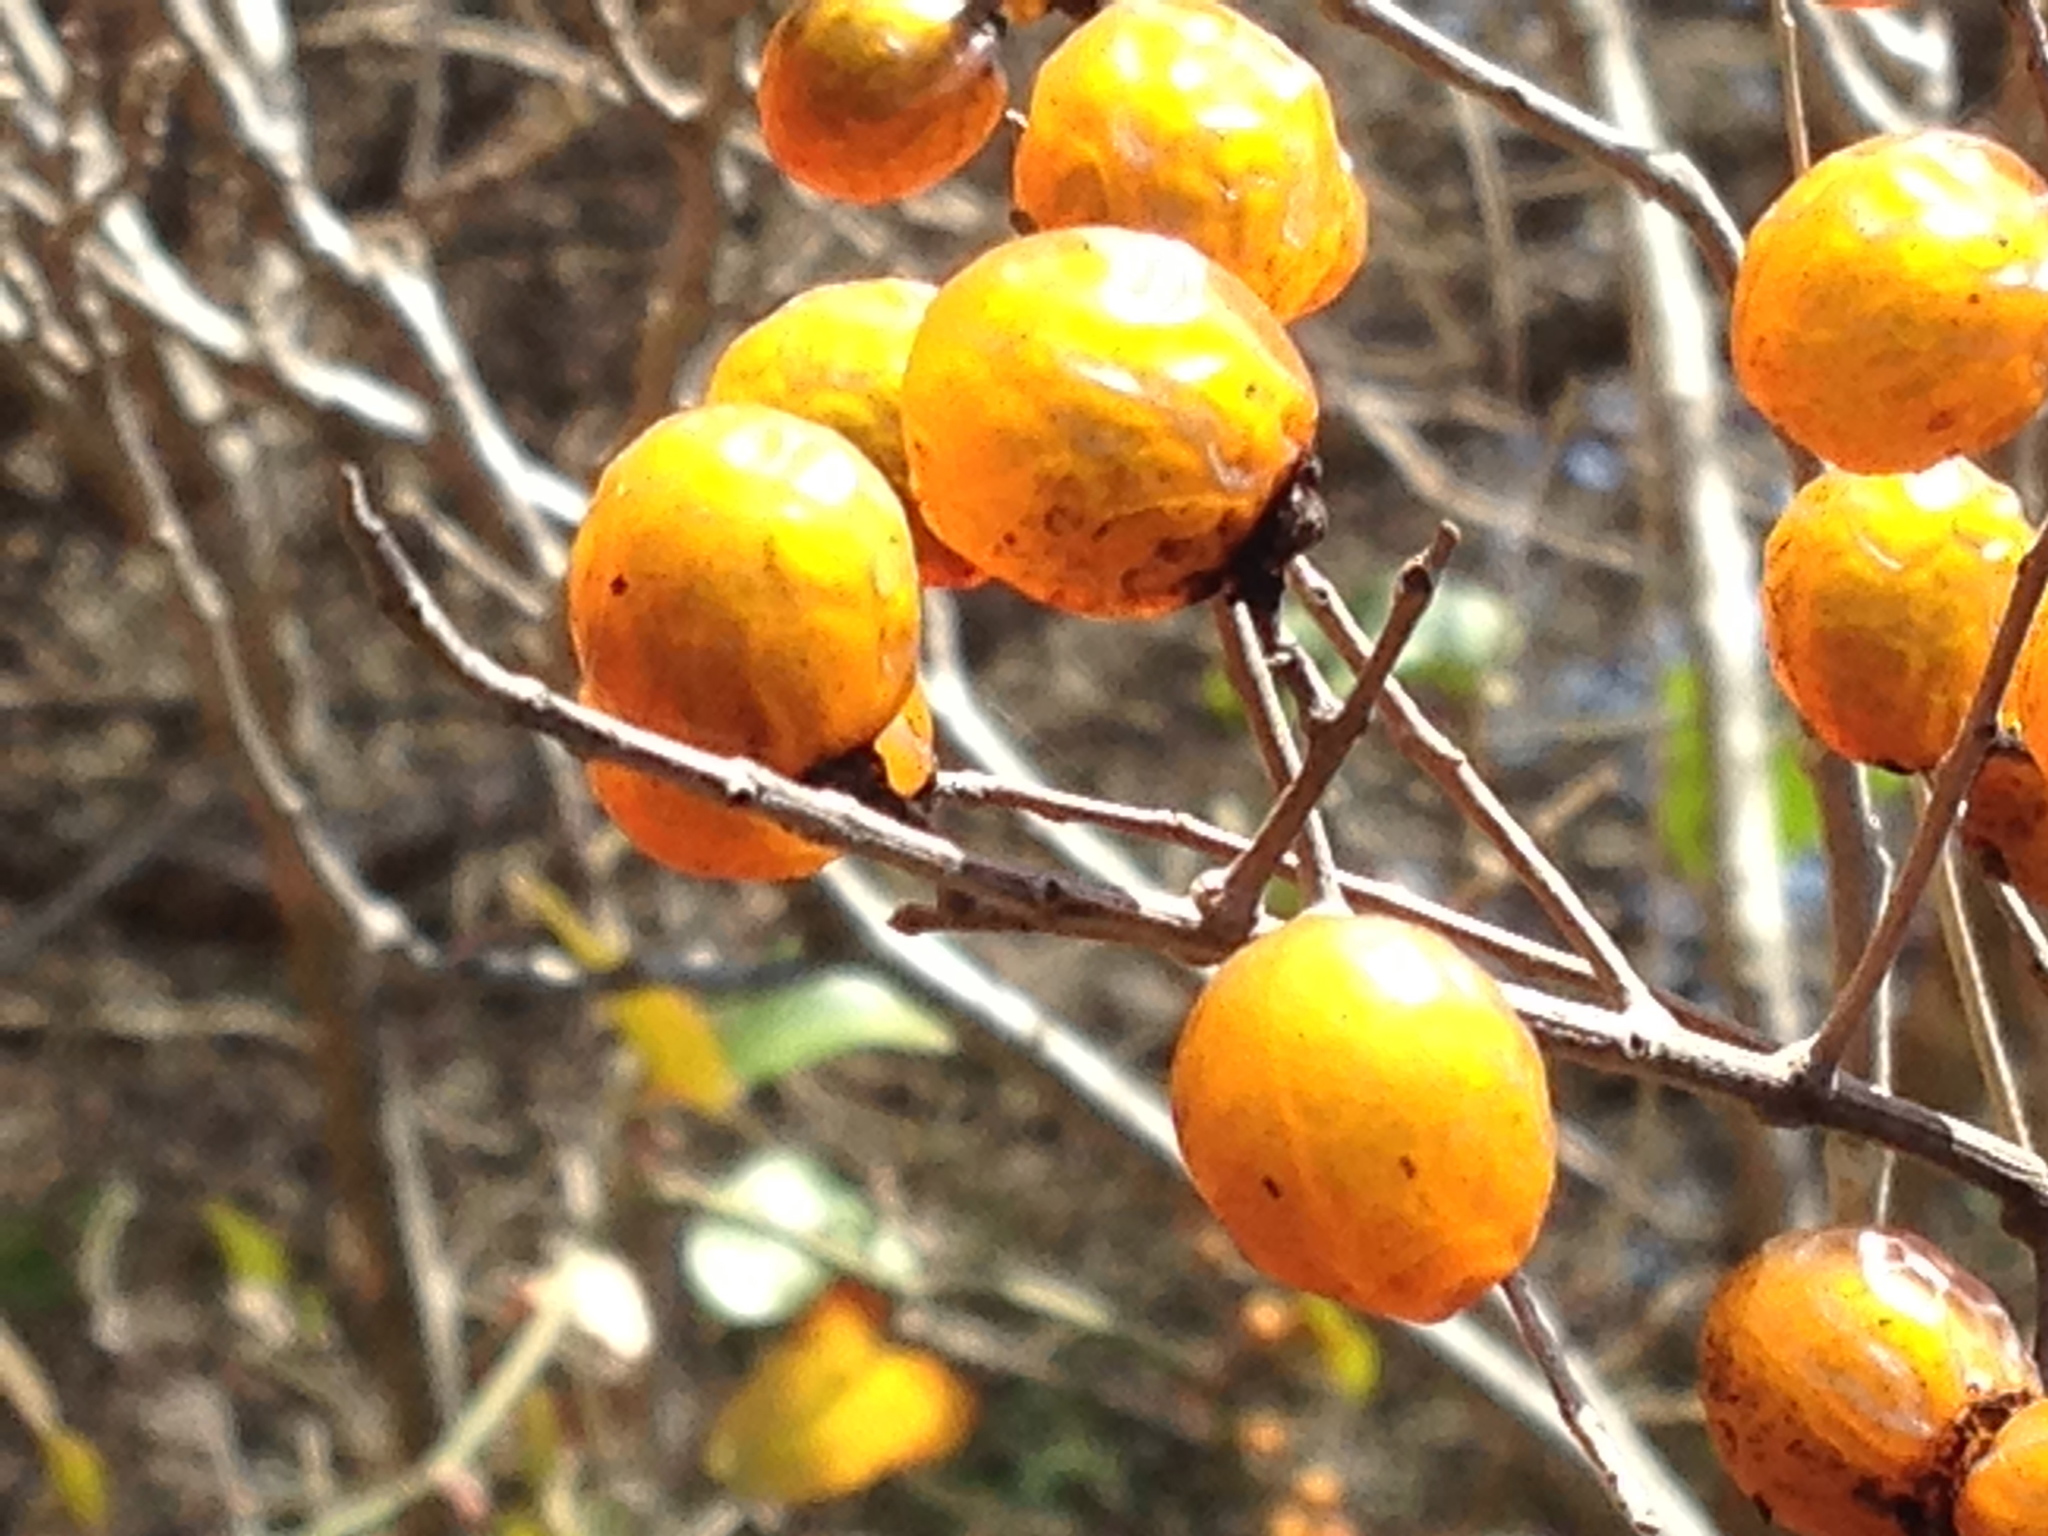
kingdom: Plantae
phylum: Tracheophyta
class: Magnoliopsida
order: Sapindales
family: Sapindaceae
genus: Sapindus
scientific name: Sapindus drummondii
